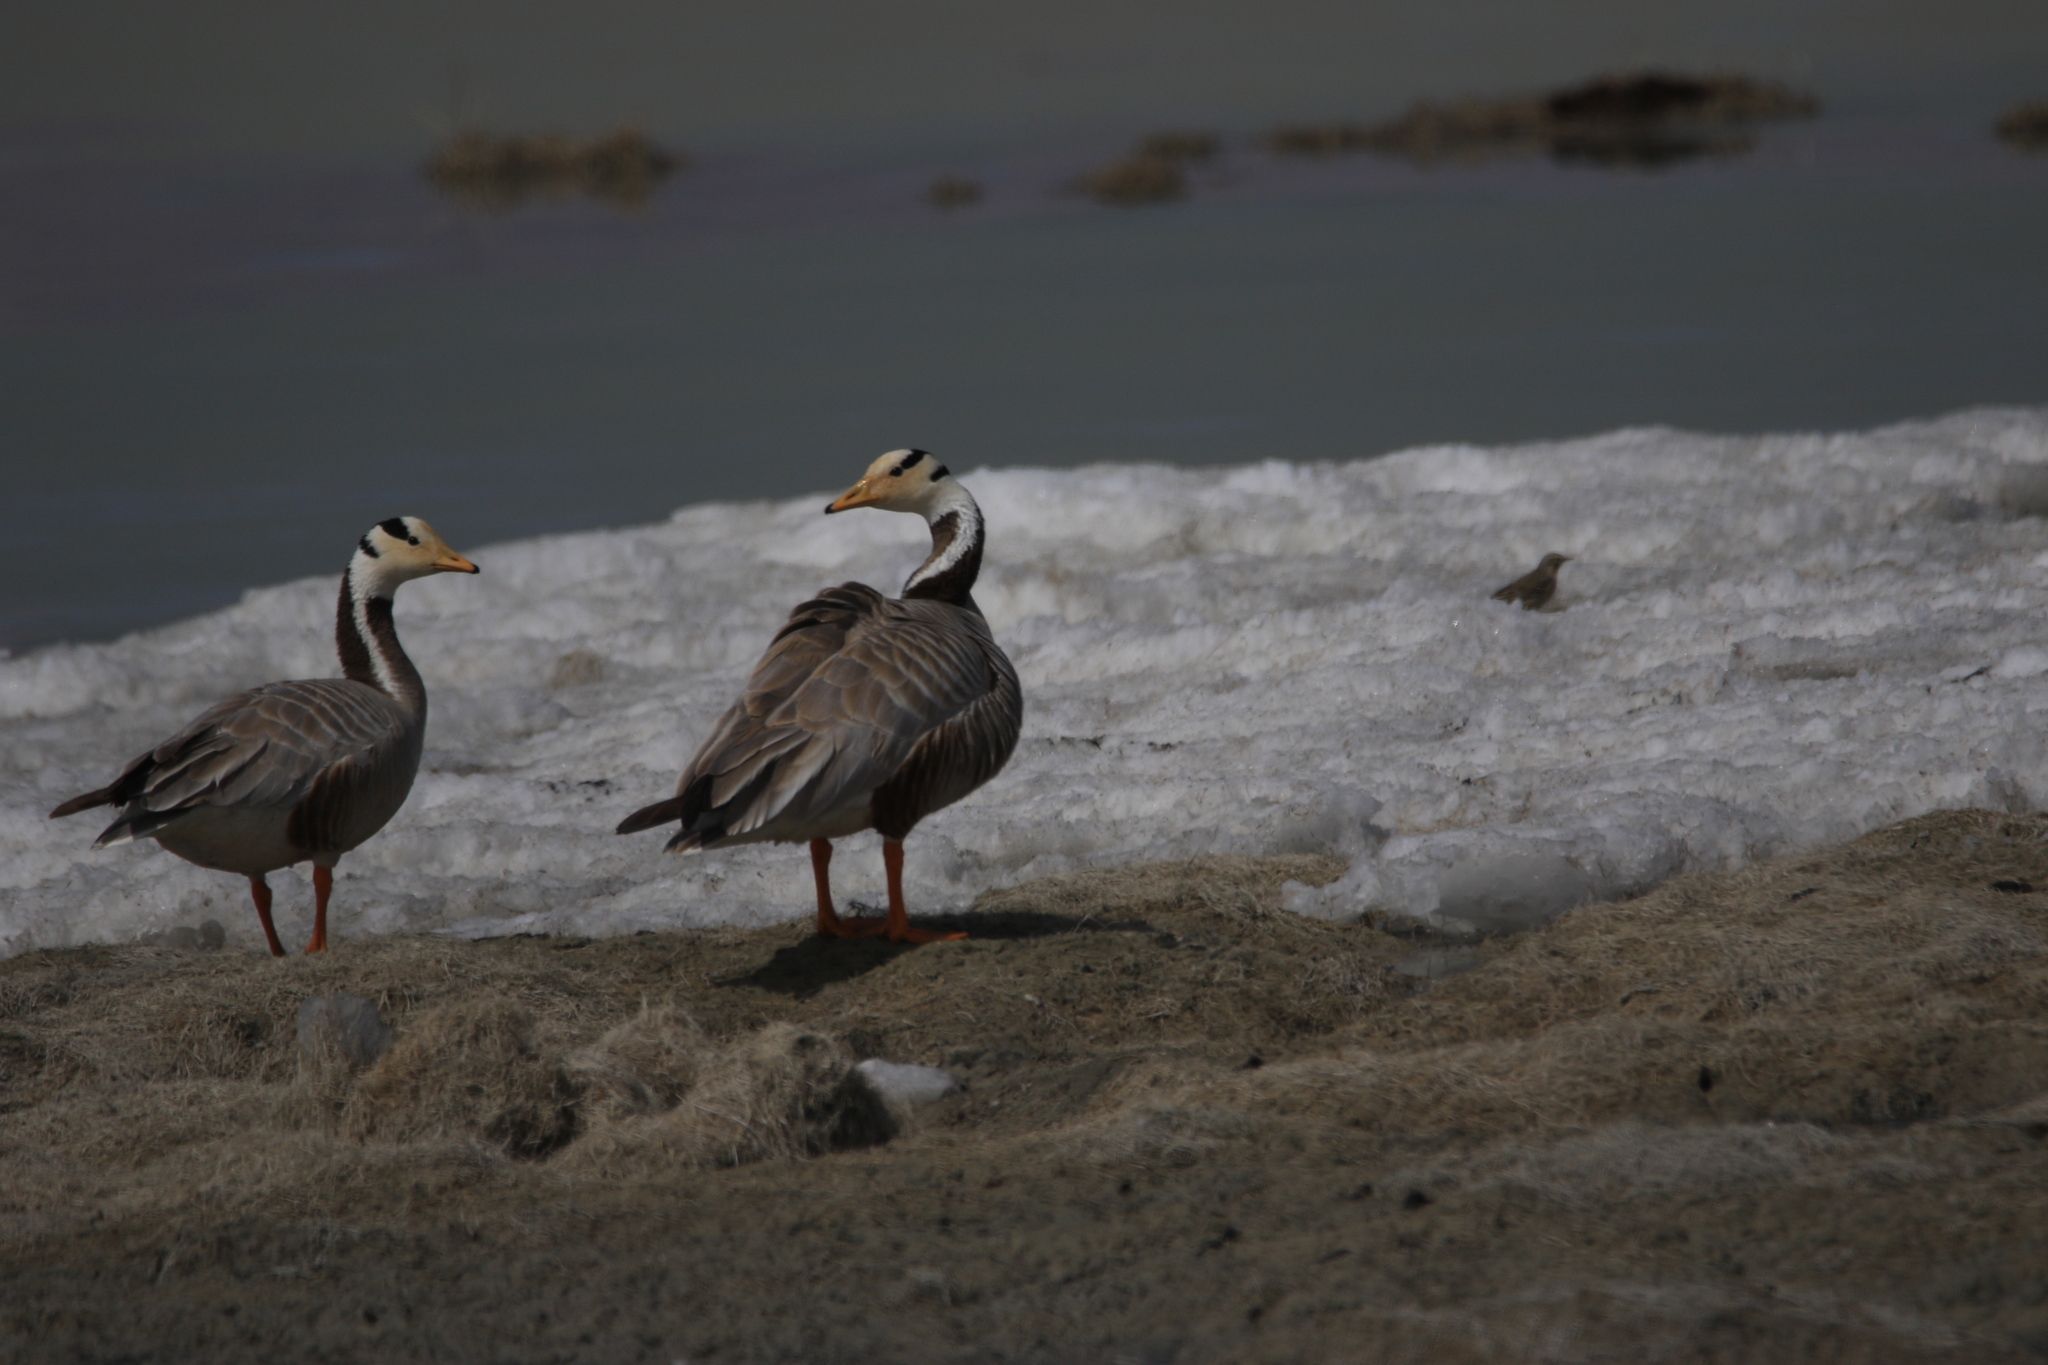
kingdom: Animalia
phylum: Chordata
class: Aves
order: Anseriformes
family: Anatidae
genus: Anser
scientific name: Anser indicus
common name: Bar-headed goose
